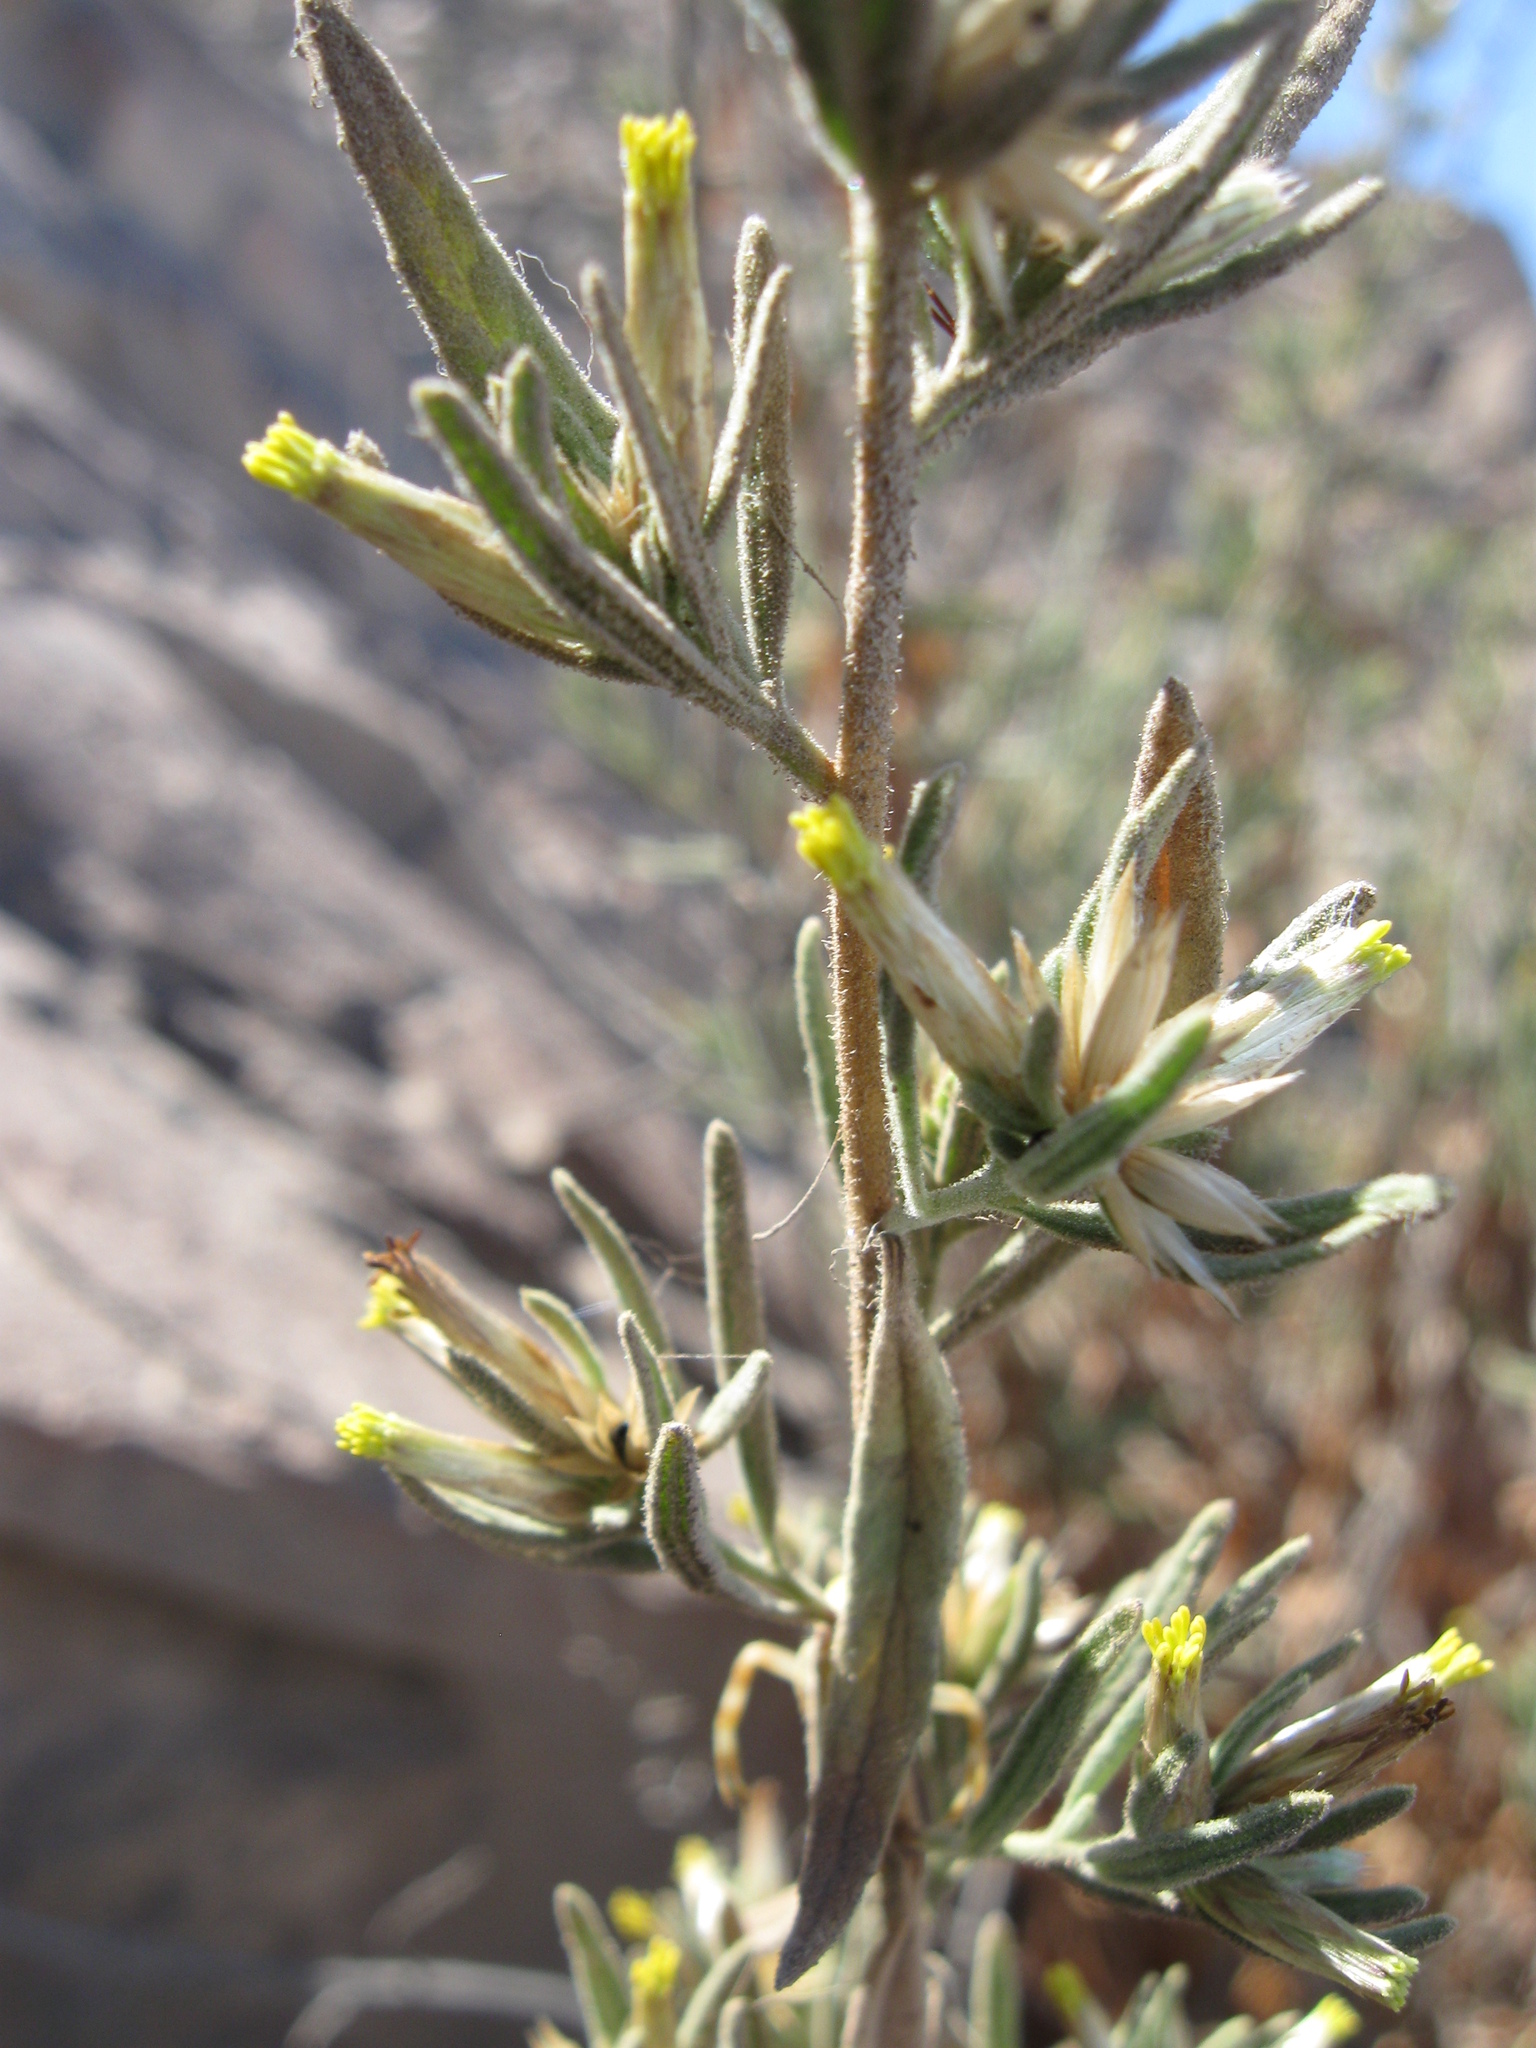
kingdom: Plantae
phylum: Tracheophyta
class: Magnoliopsida
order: Asterales
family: Asteraceae
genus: Helogyne
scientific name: Helogyne virgata
